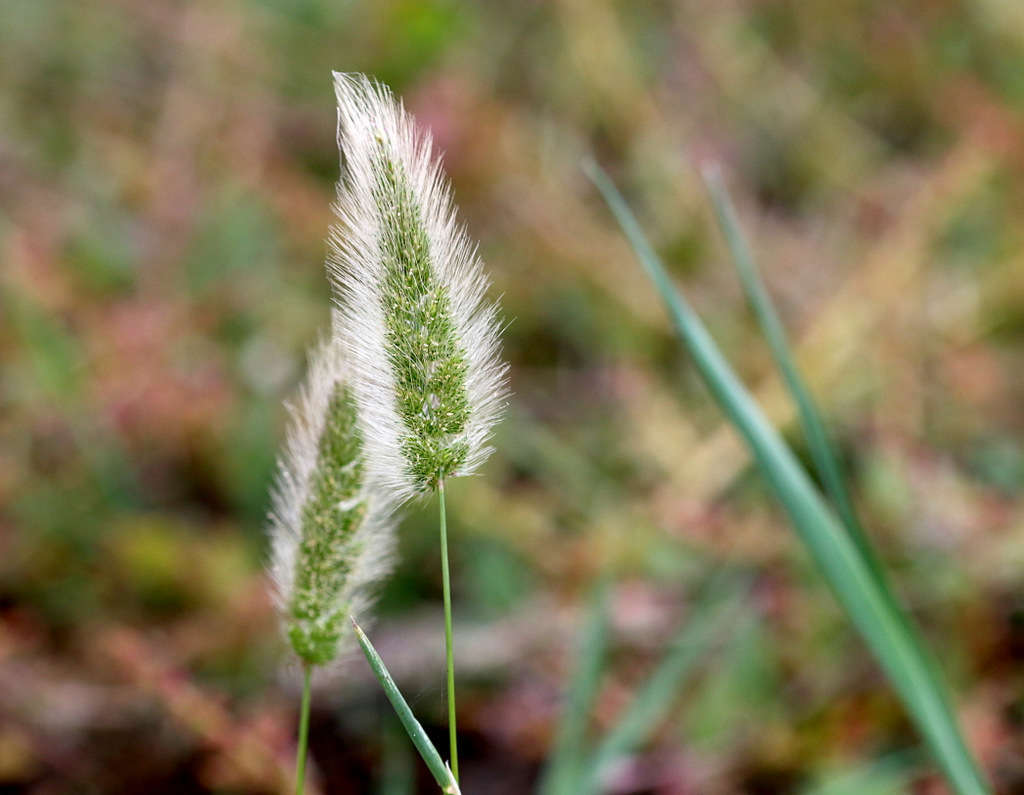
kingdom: Plantae
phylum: Tracheophyta
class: Liliopsida
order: Poales
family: Poaceae
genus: Polypogon
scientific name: Polypogon monspeliensis
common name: Annual rabbitsfoot grass
